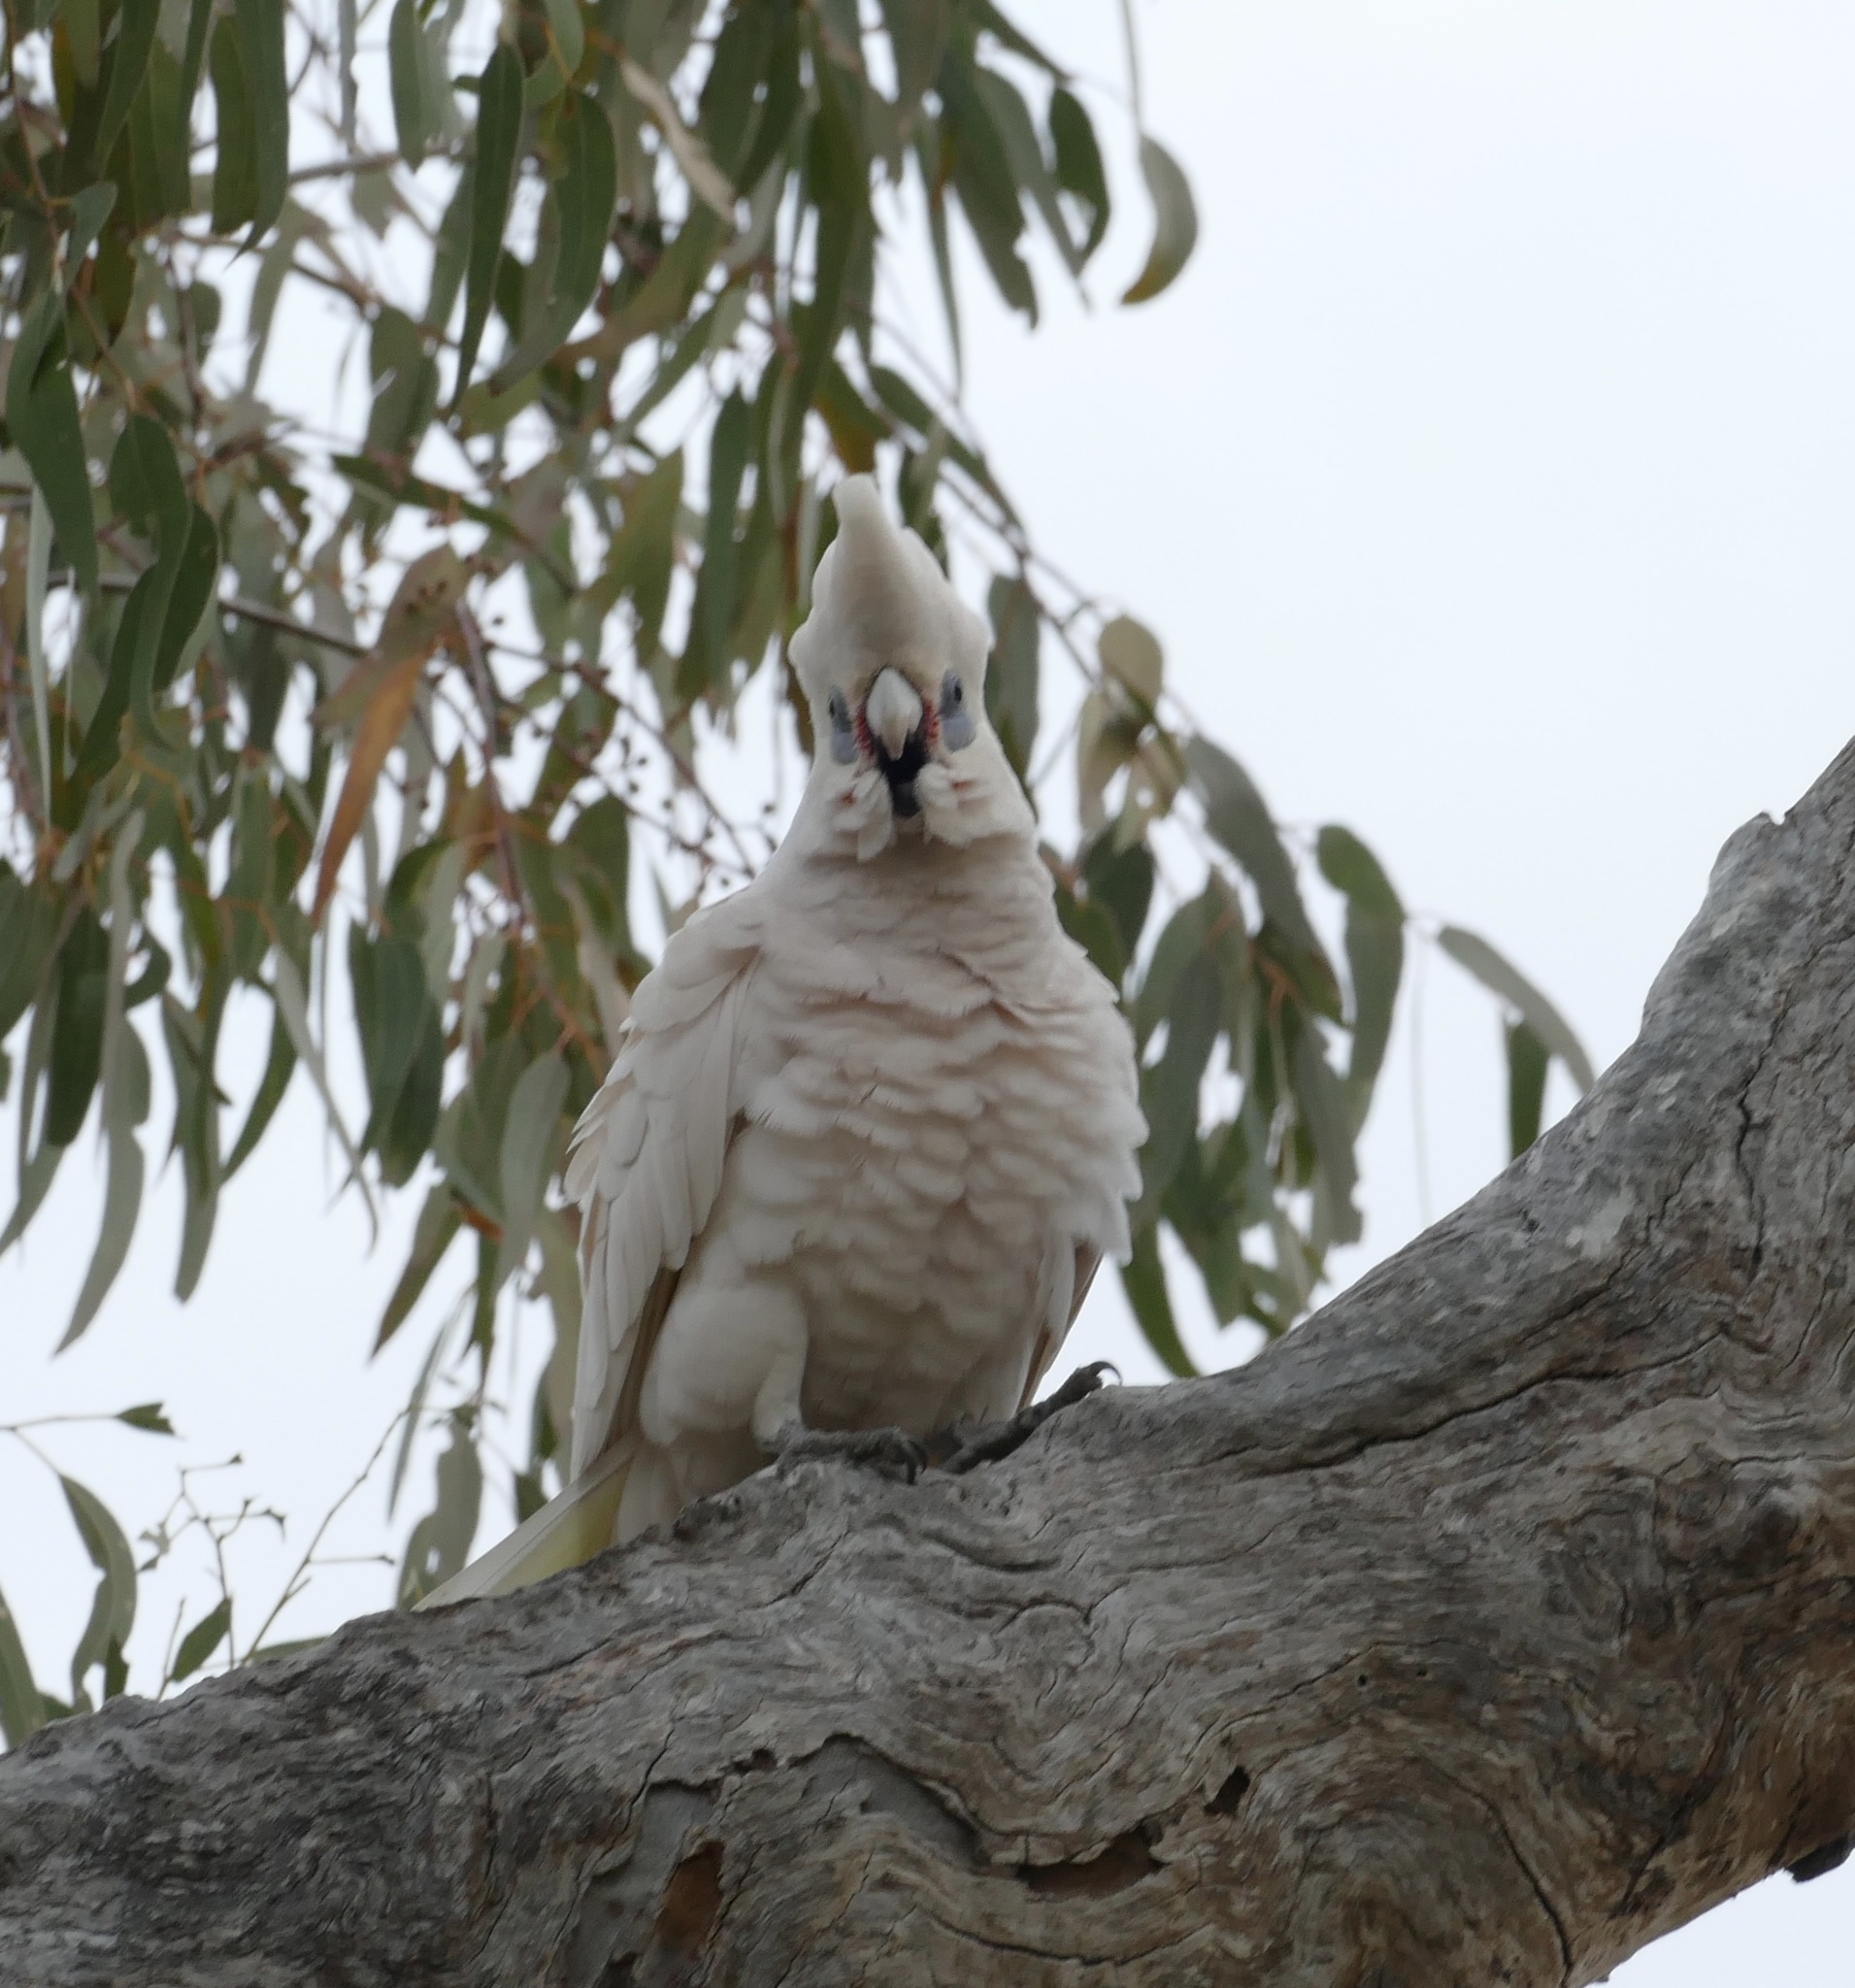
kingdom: Animalia
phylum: Chordata
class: Aves
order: Psittaciformes
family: Psittacidae
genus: Cacatua
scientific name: Cacatua sanguinea
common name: Little corella
